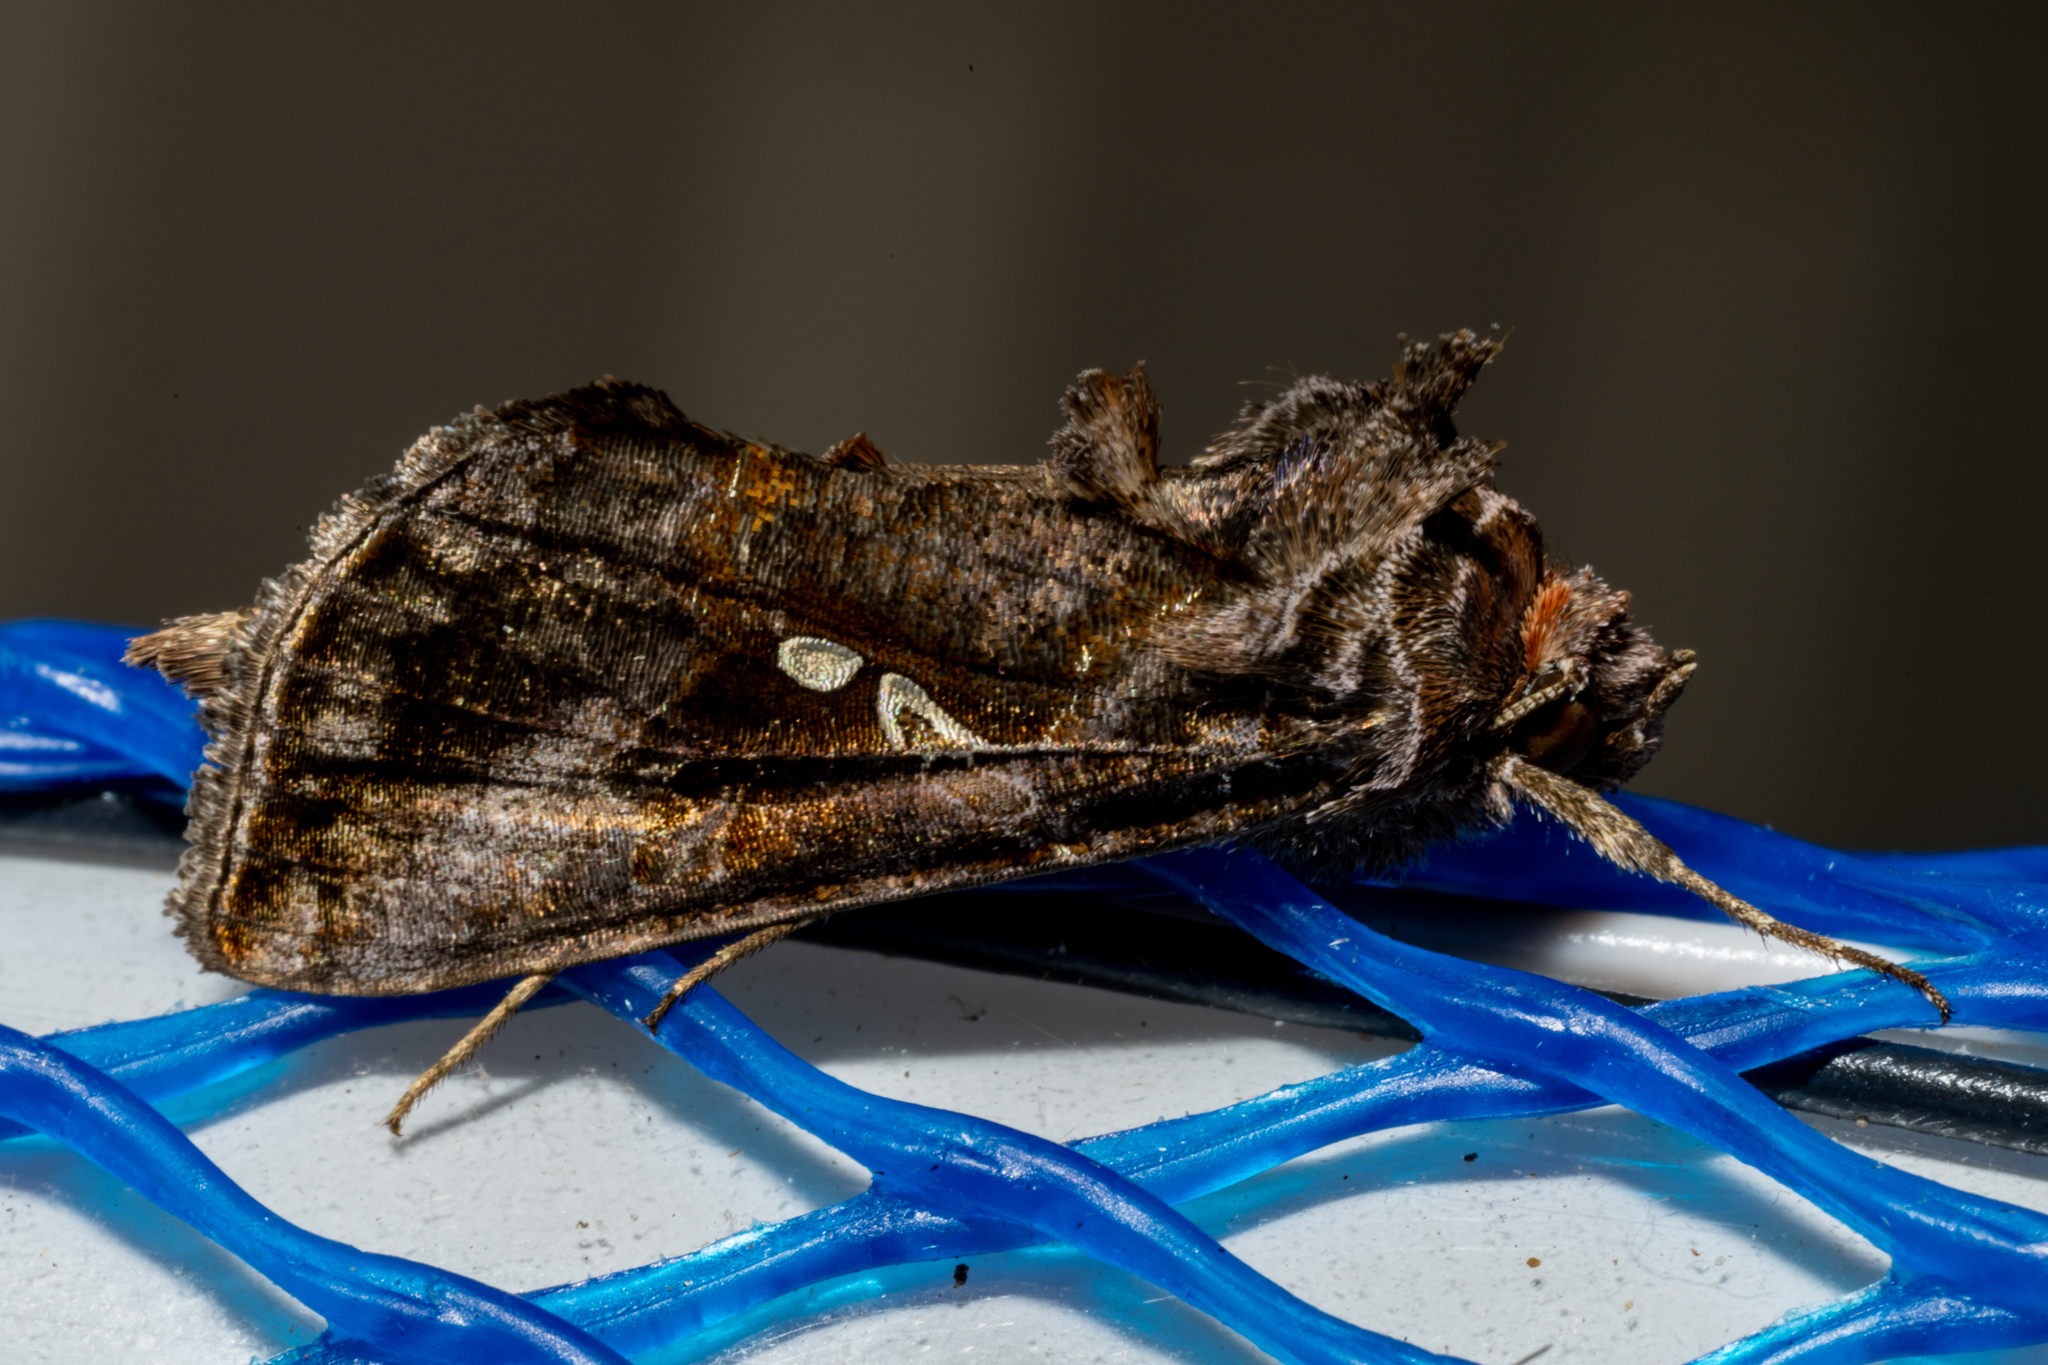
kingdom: Animalia
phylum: Arthropoda
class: Insecta
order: Lepidoptera
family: Noctuidae
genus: Autographa
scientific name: Autographa precationis
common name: Common looper moth
